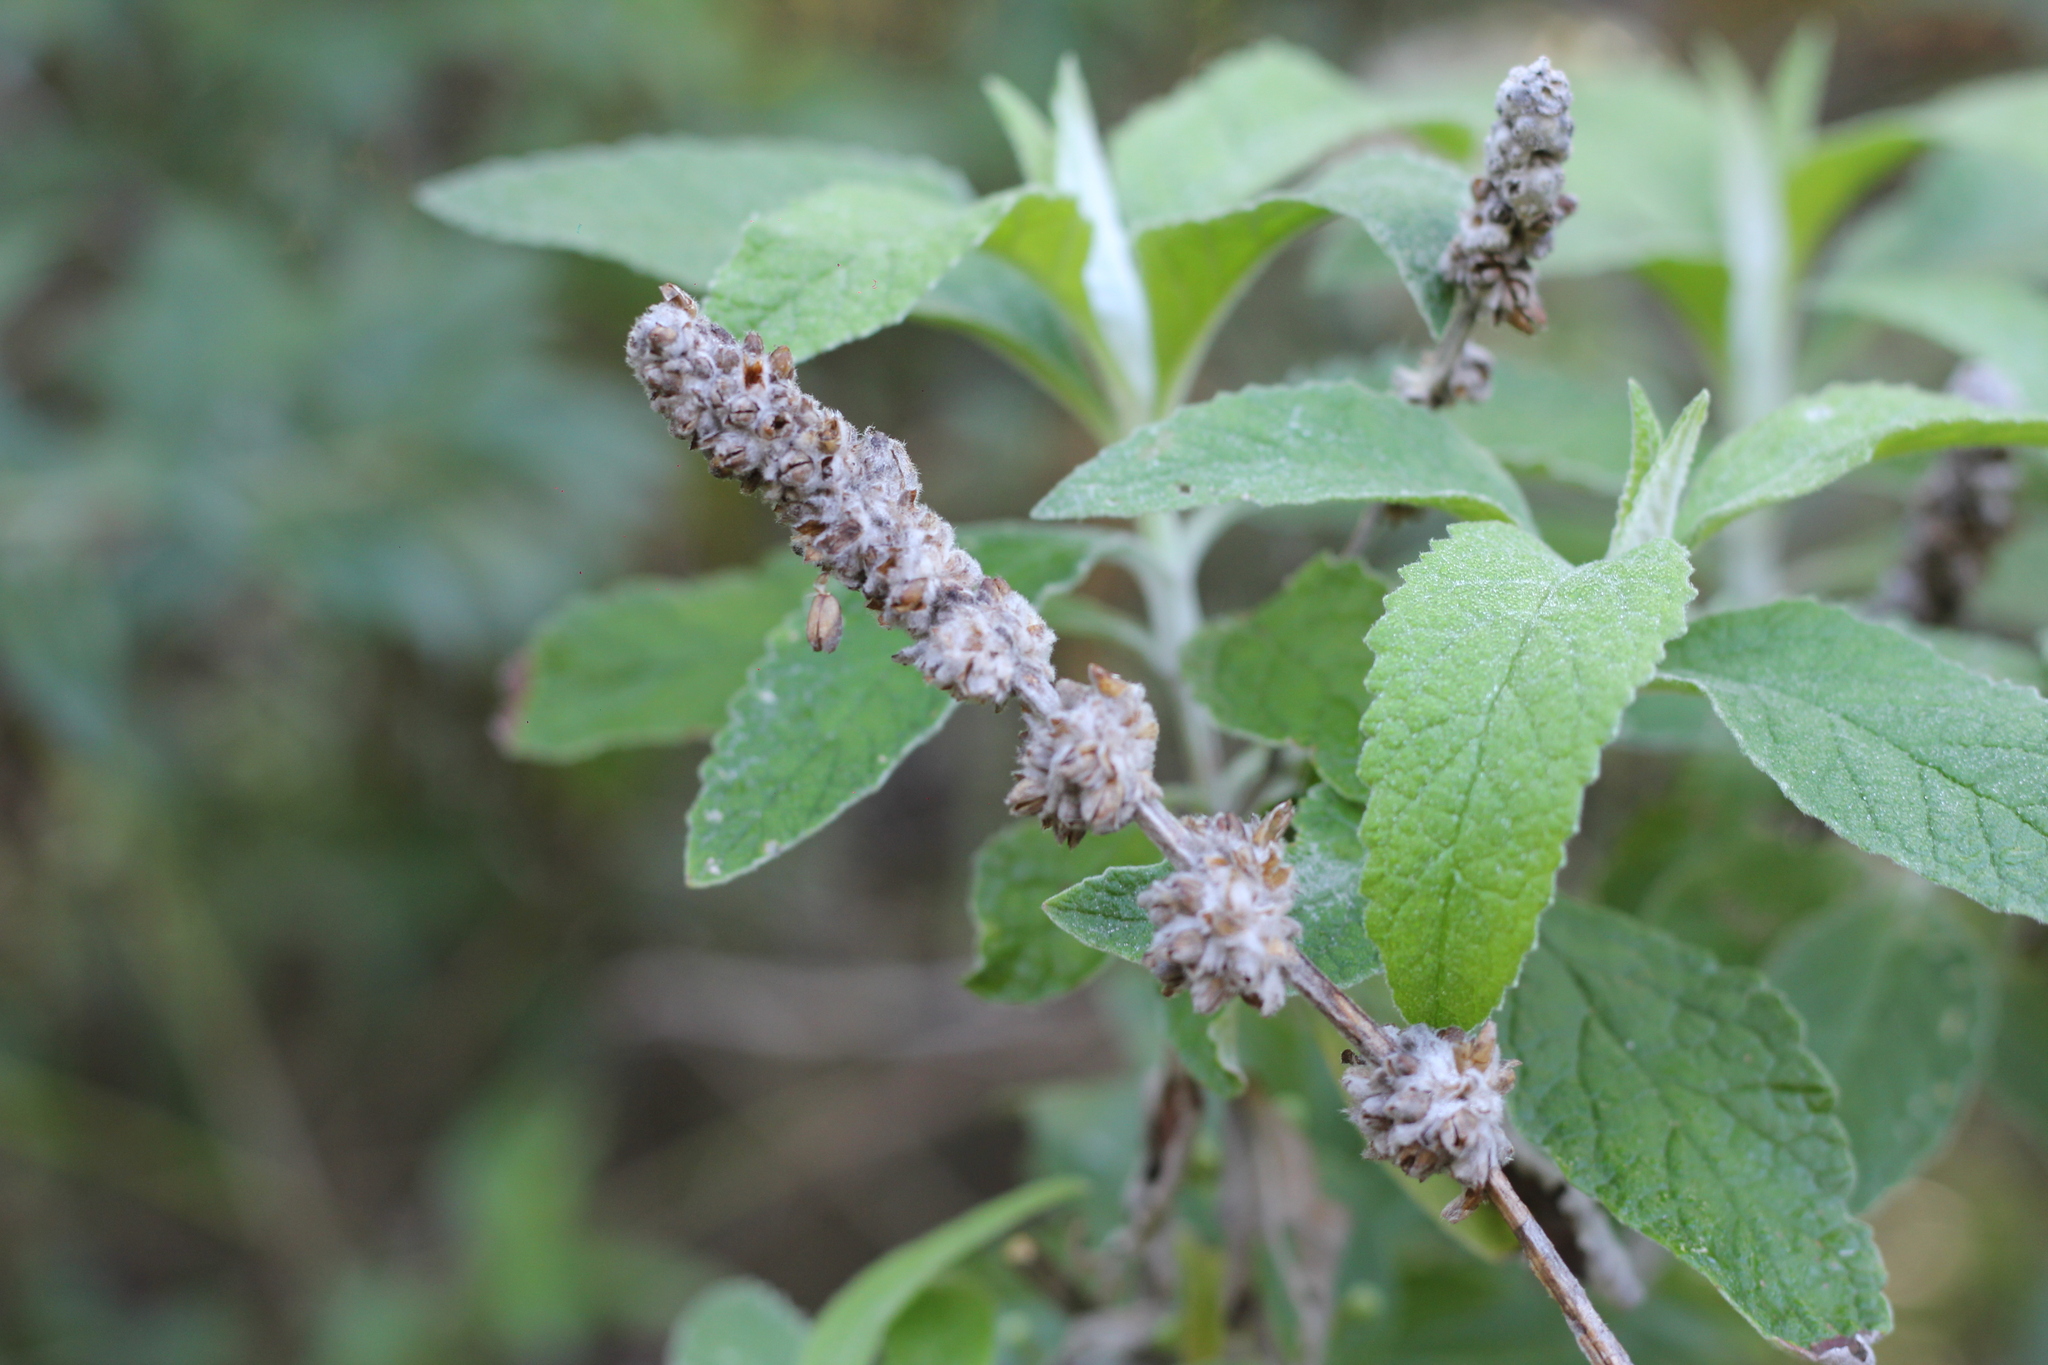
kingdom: Plantae
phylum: Tracheophyta
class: Magnoliopsida
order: Lamiales
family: Scrophulariaceae
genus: Buddleja
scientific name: Buddleja stachyoides
